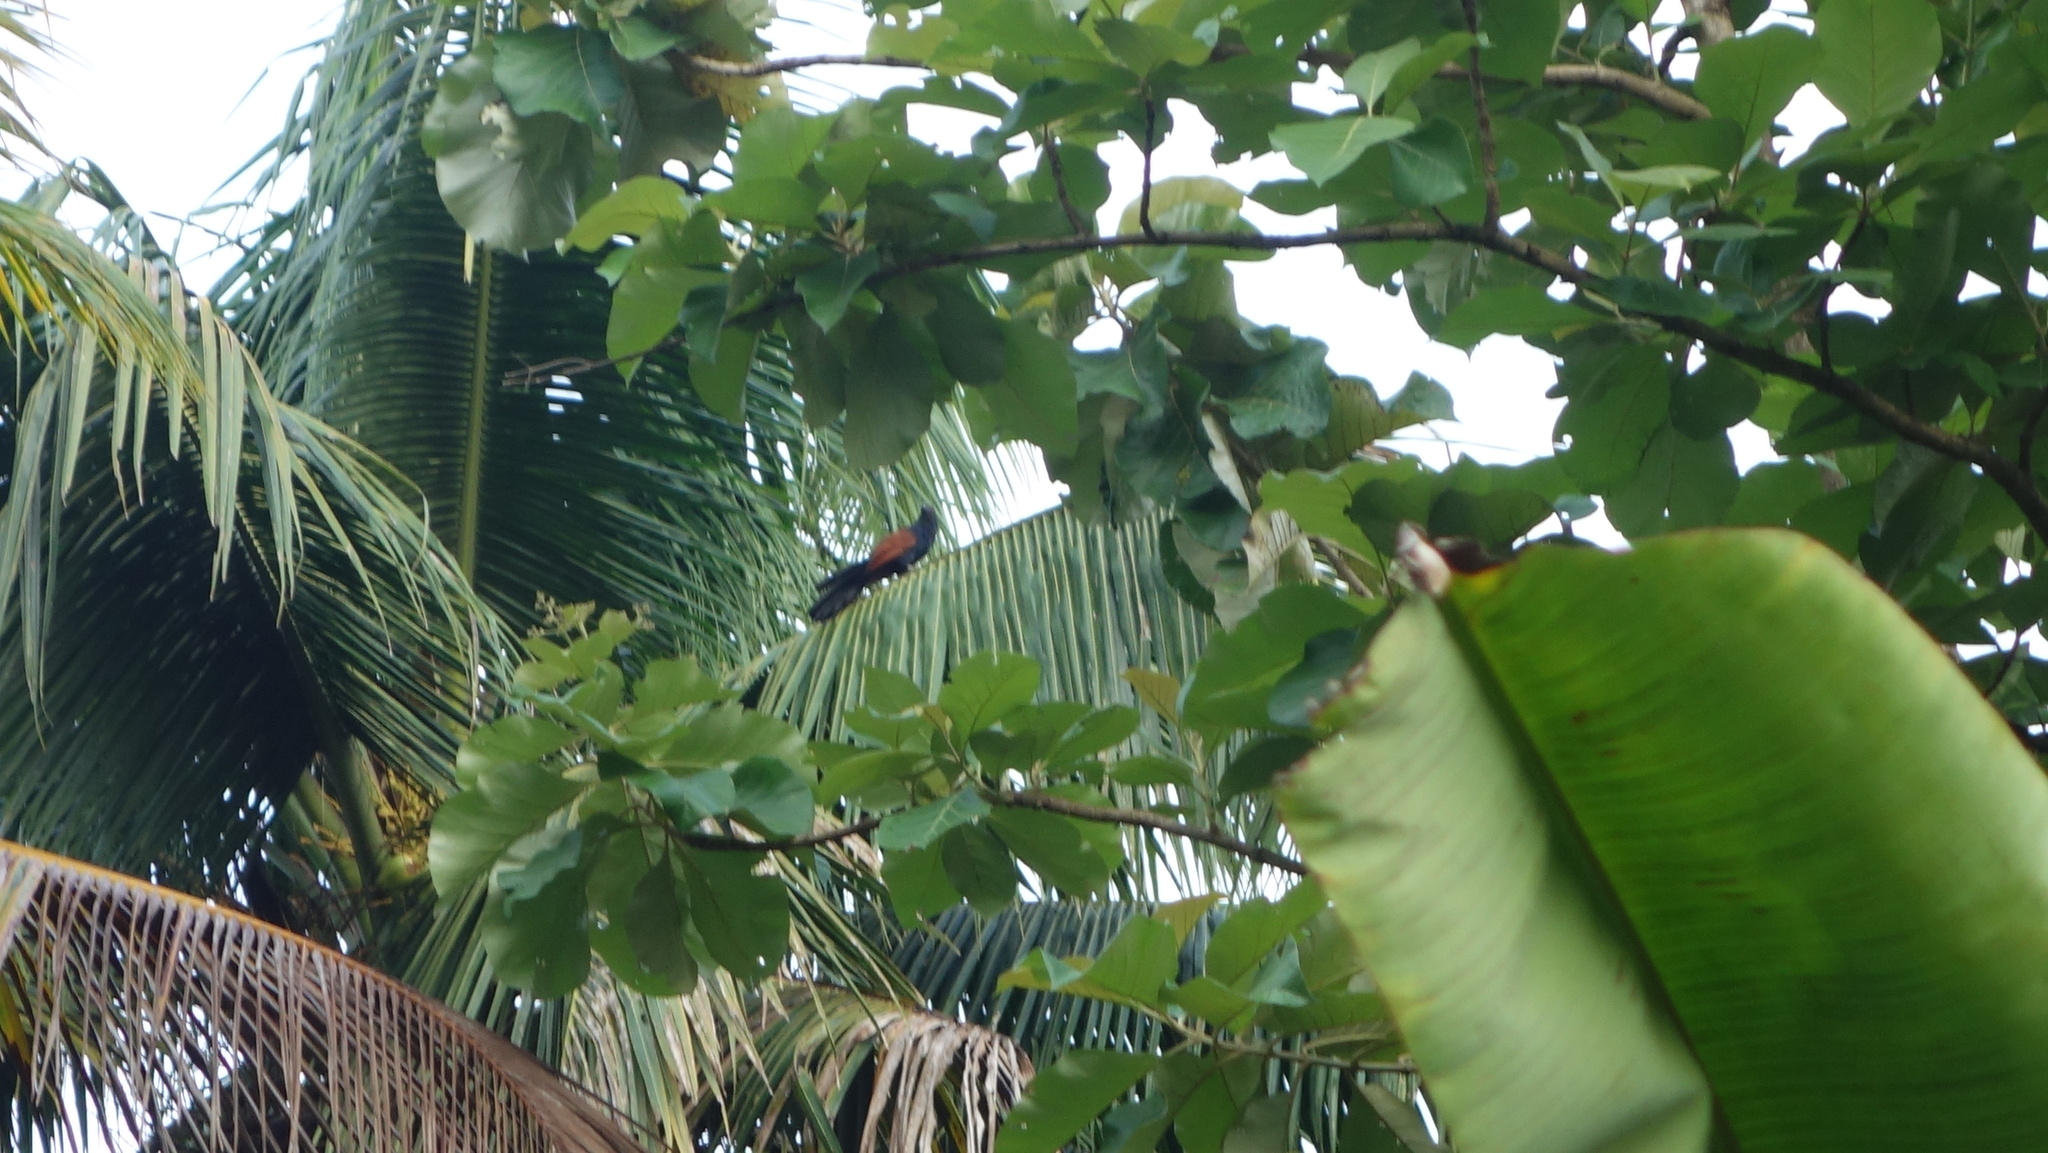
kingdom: Animalia
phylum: Chordata
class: Aves
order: Cuculiformes
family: Cuculidae
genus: Centropus
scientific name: Centropus sinensis
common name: Greater coucal
